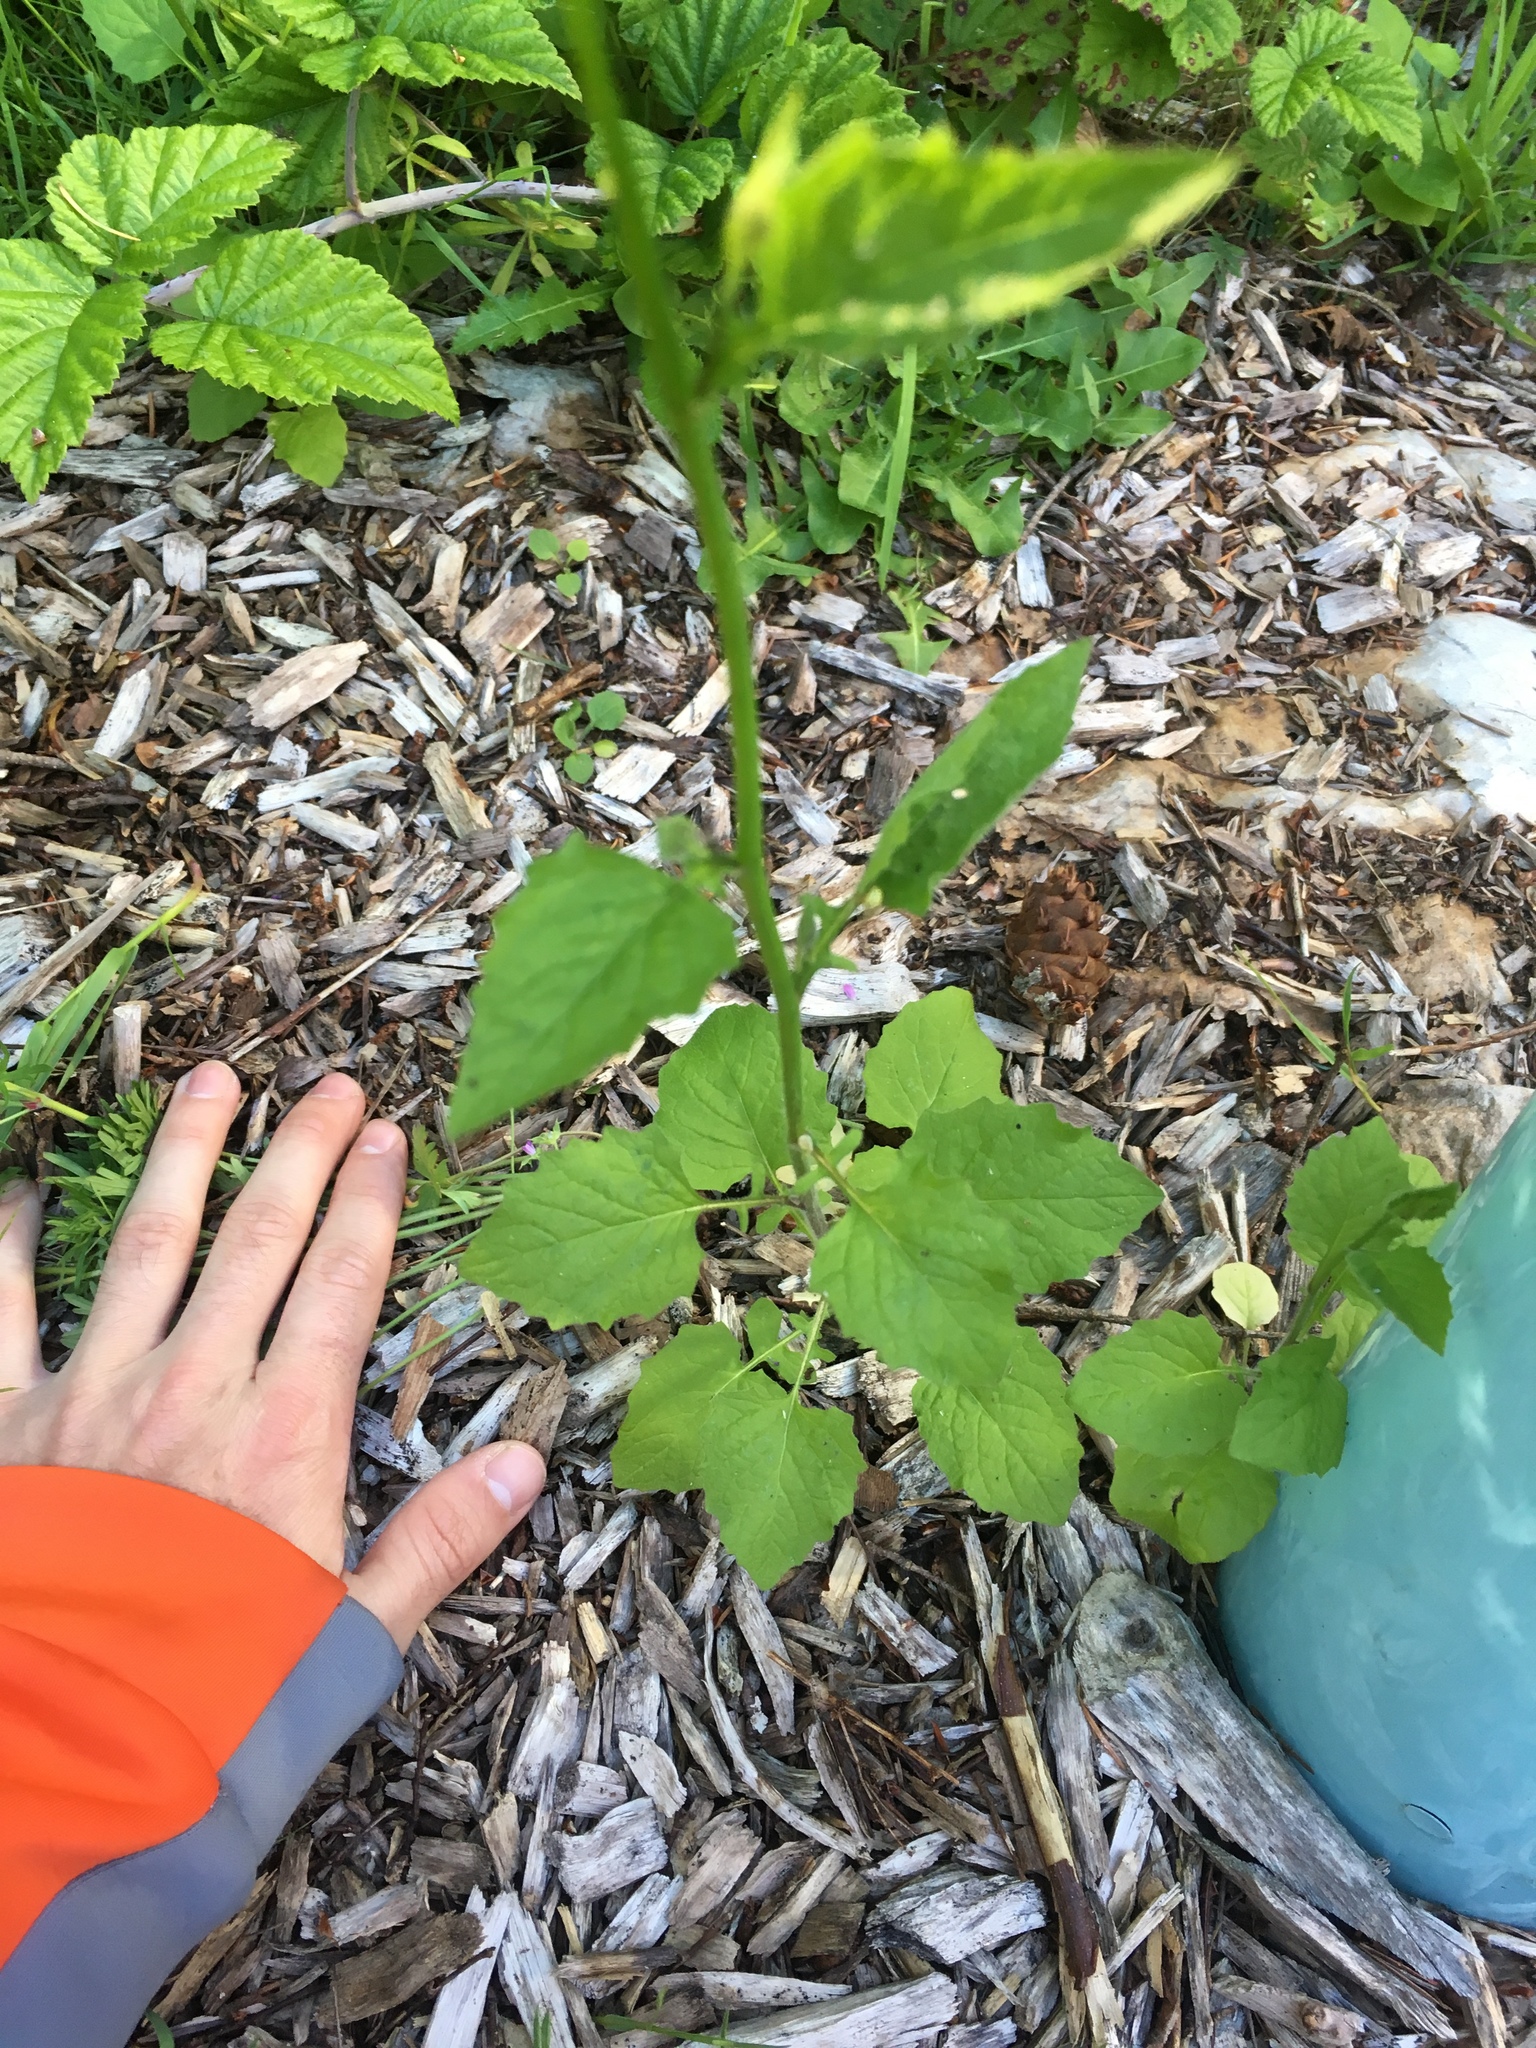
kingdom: Plantae
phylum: Tracheophyta
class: Magnoliopsida
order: Asterales
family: Asteraceae
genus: Lapsana
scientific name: Lapsana communis
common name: Nipplewort
